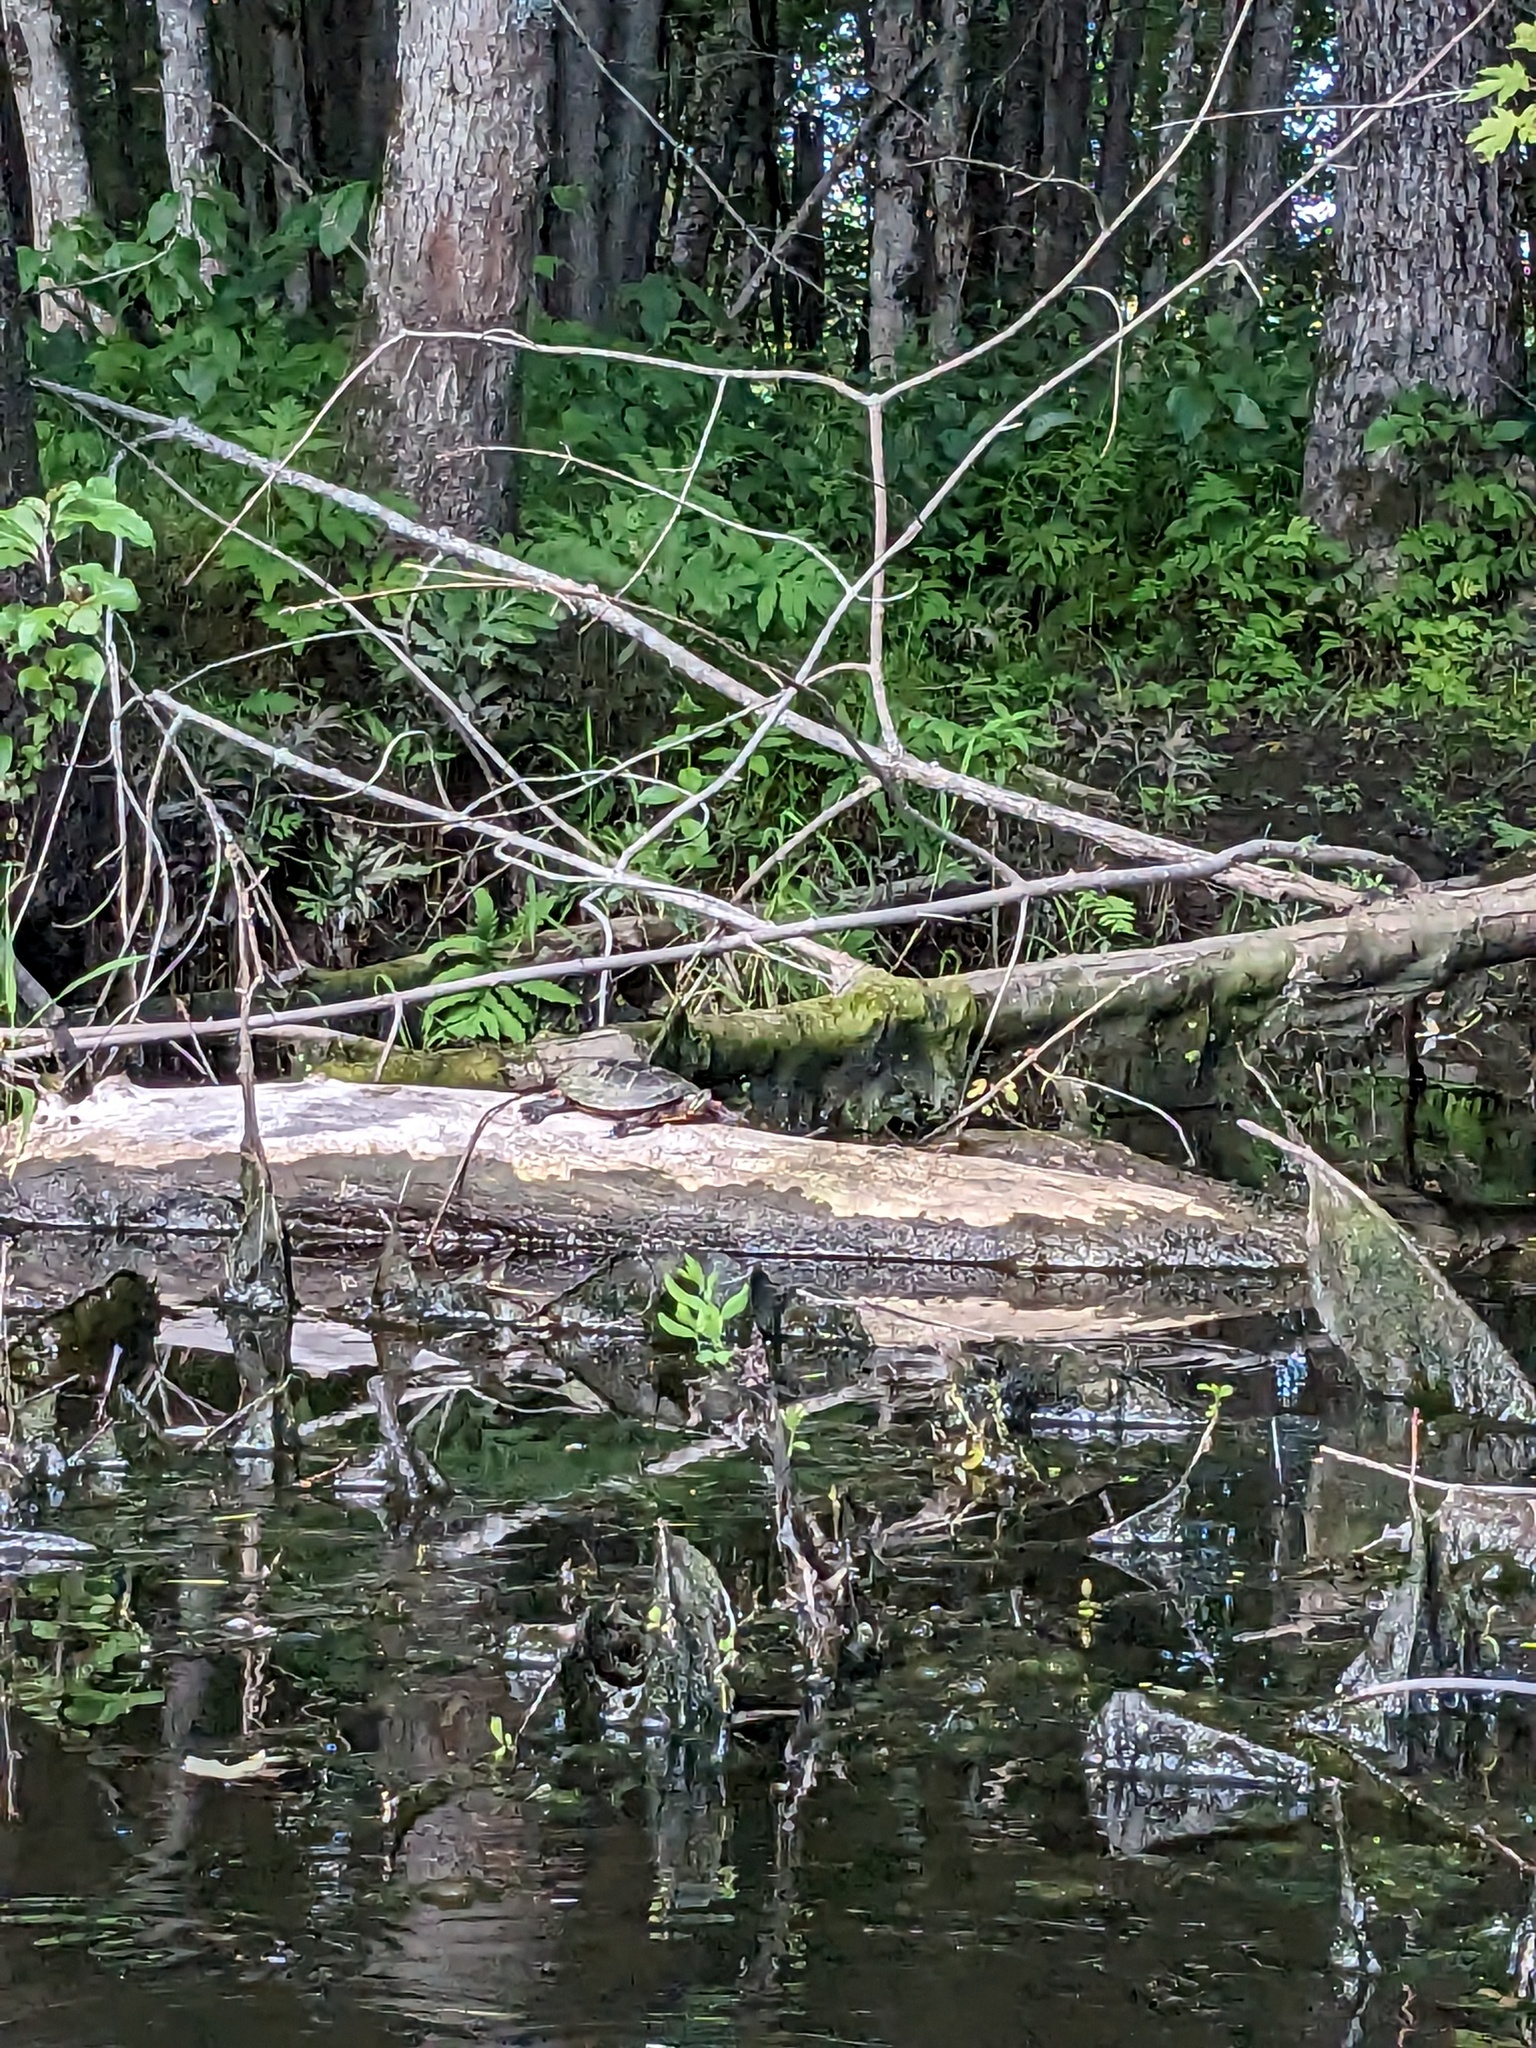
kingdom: Animalia
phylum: Chordata
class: Testudines
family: Emydidae
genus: Chrysemys
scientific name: Chrysemys picta
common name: Painted turtle
